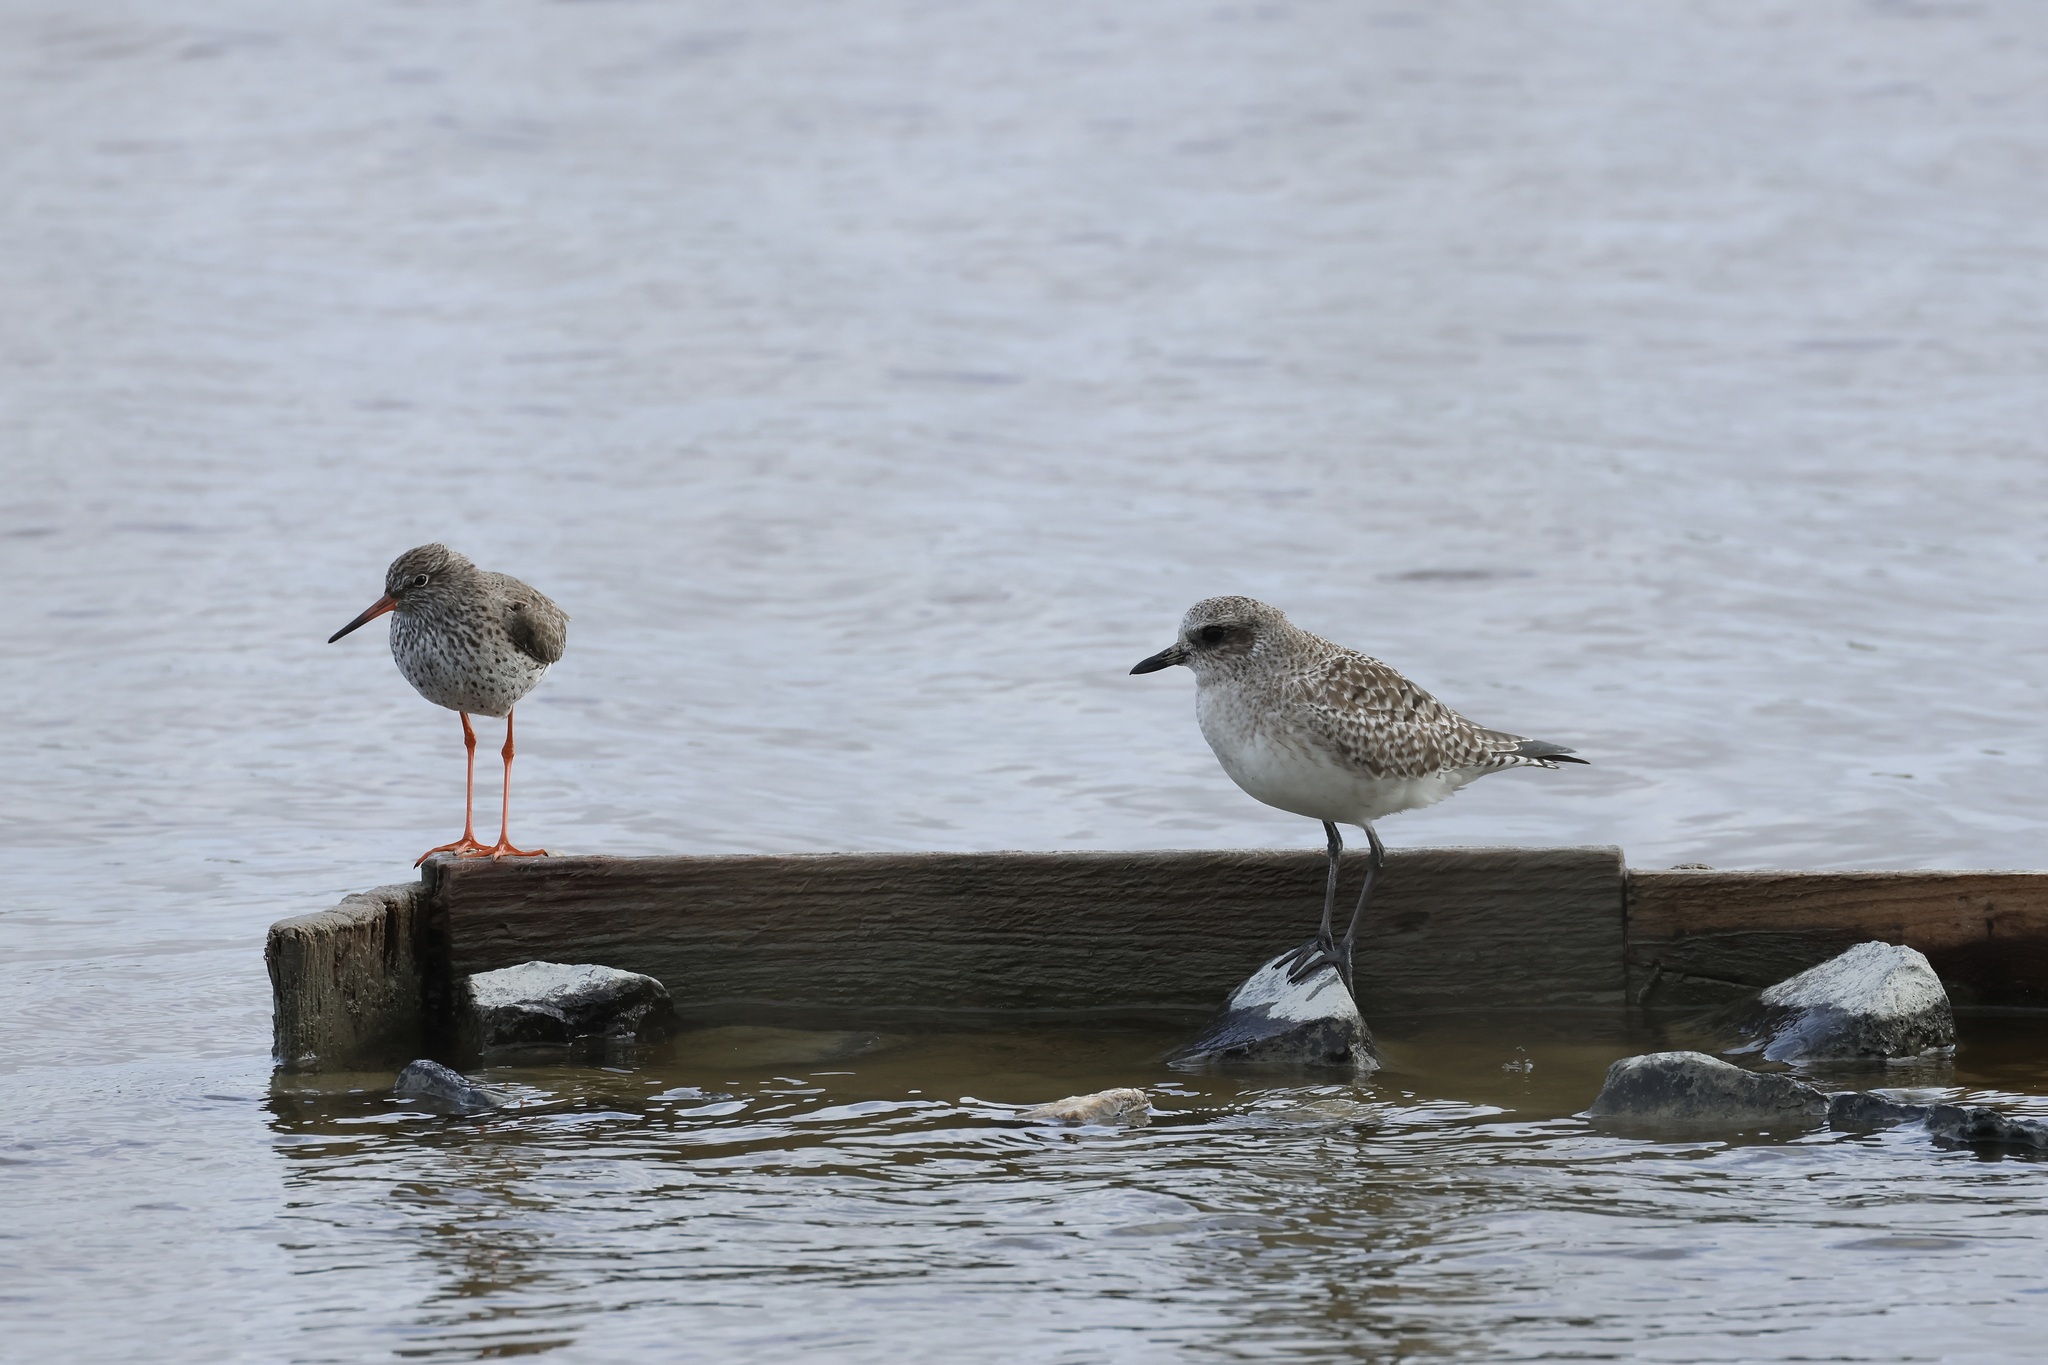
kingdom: Animalia
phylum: Chordata
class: Aves
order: Charadriiformes
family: Charadriidae
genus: Pluvialis
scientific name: Pluvialis squatarola
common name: Grey plover
